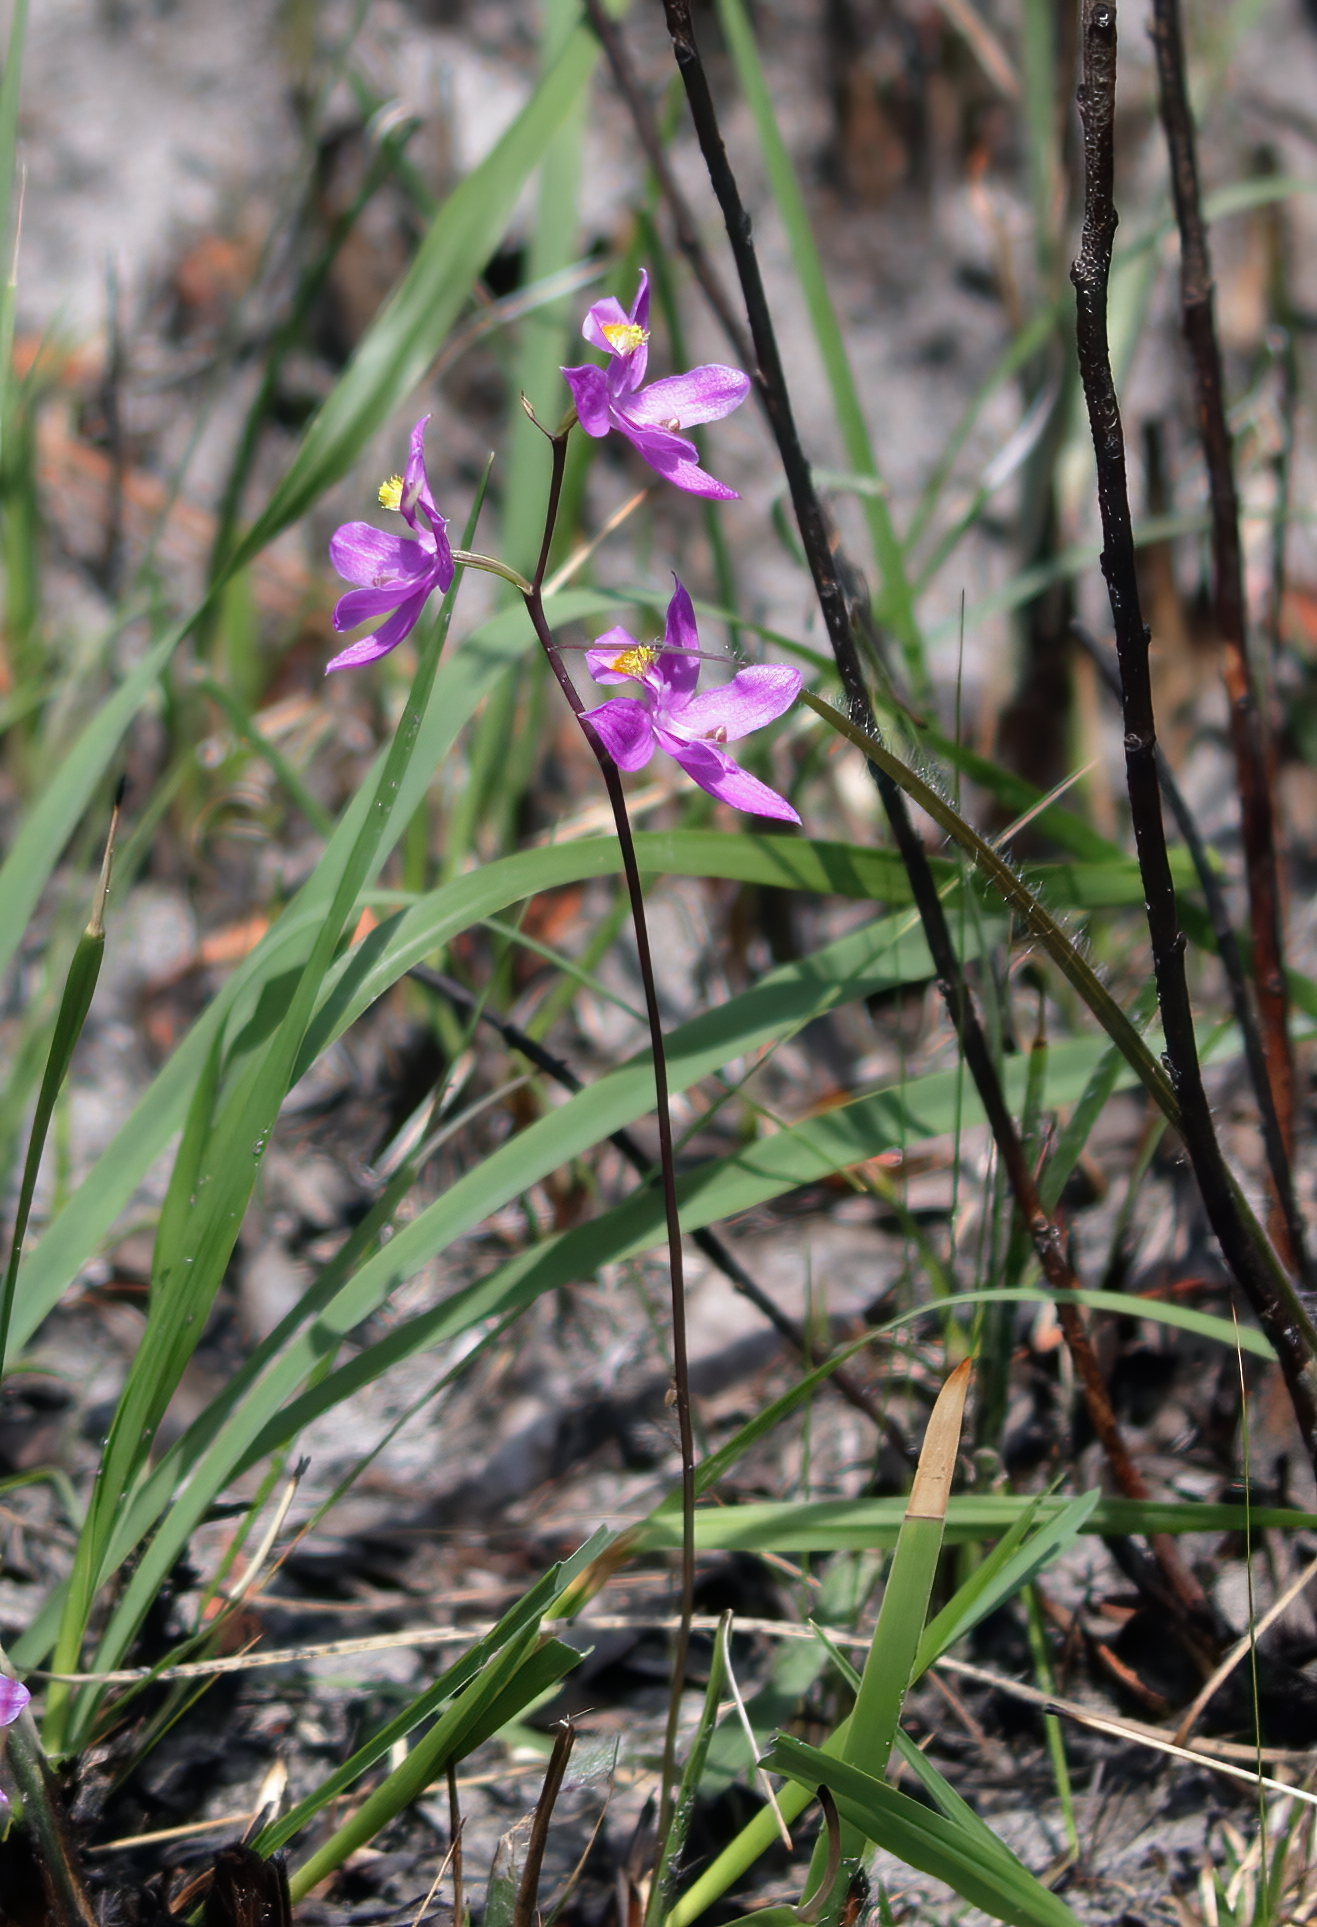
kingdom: Plantae
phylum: Tracheophyta
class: Liliopsida
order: Asparagales
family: Orchidaceae
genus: Calopogon
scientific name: Calopogon multiflorus
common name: Many-flowered grass-pink orchid
